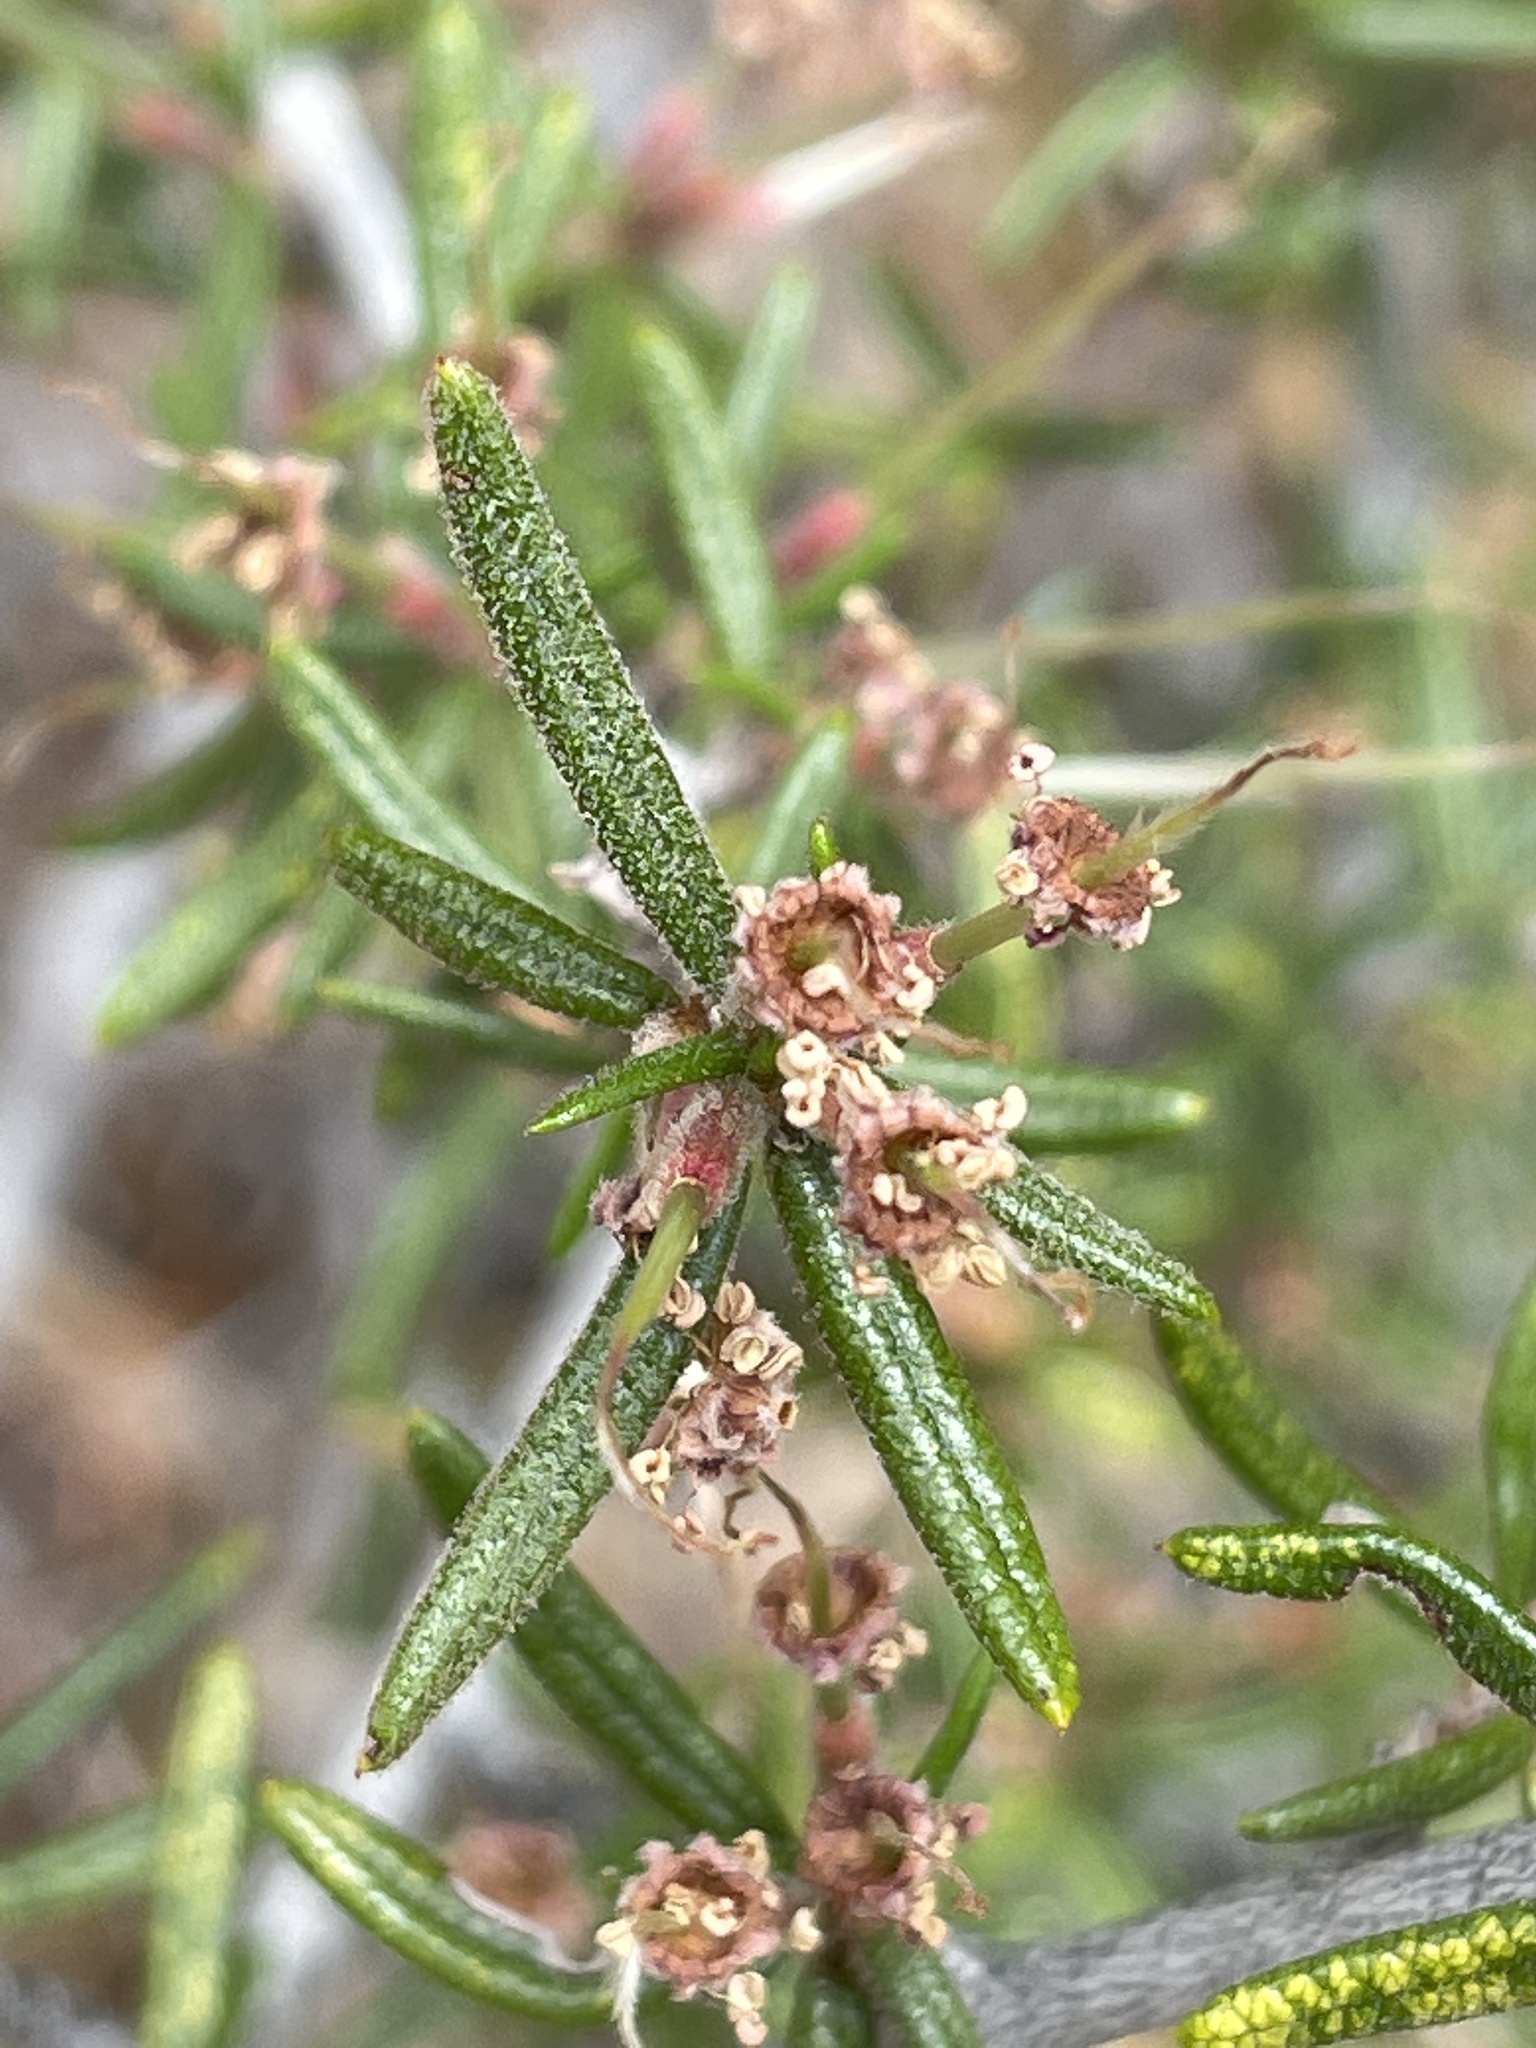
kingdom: Plantae
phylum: Tracheophyta
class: Magnoliopsida
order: Rosales
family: Rosaceae
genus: Cercocarpus
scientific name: Cercocarpus intricatus
